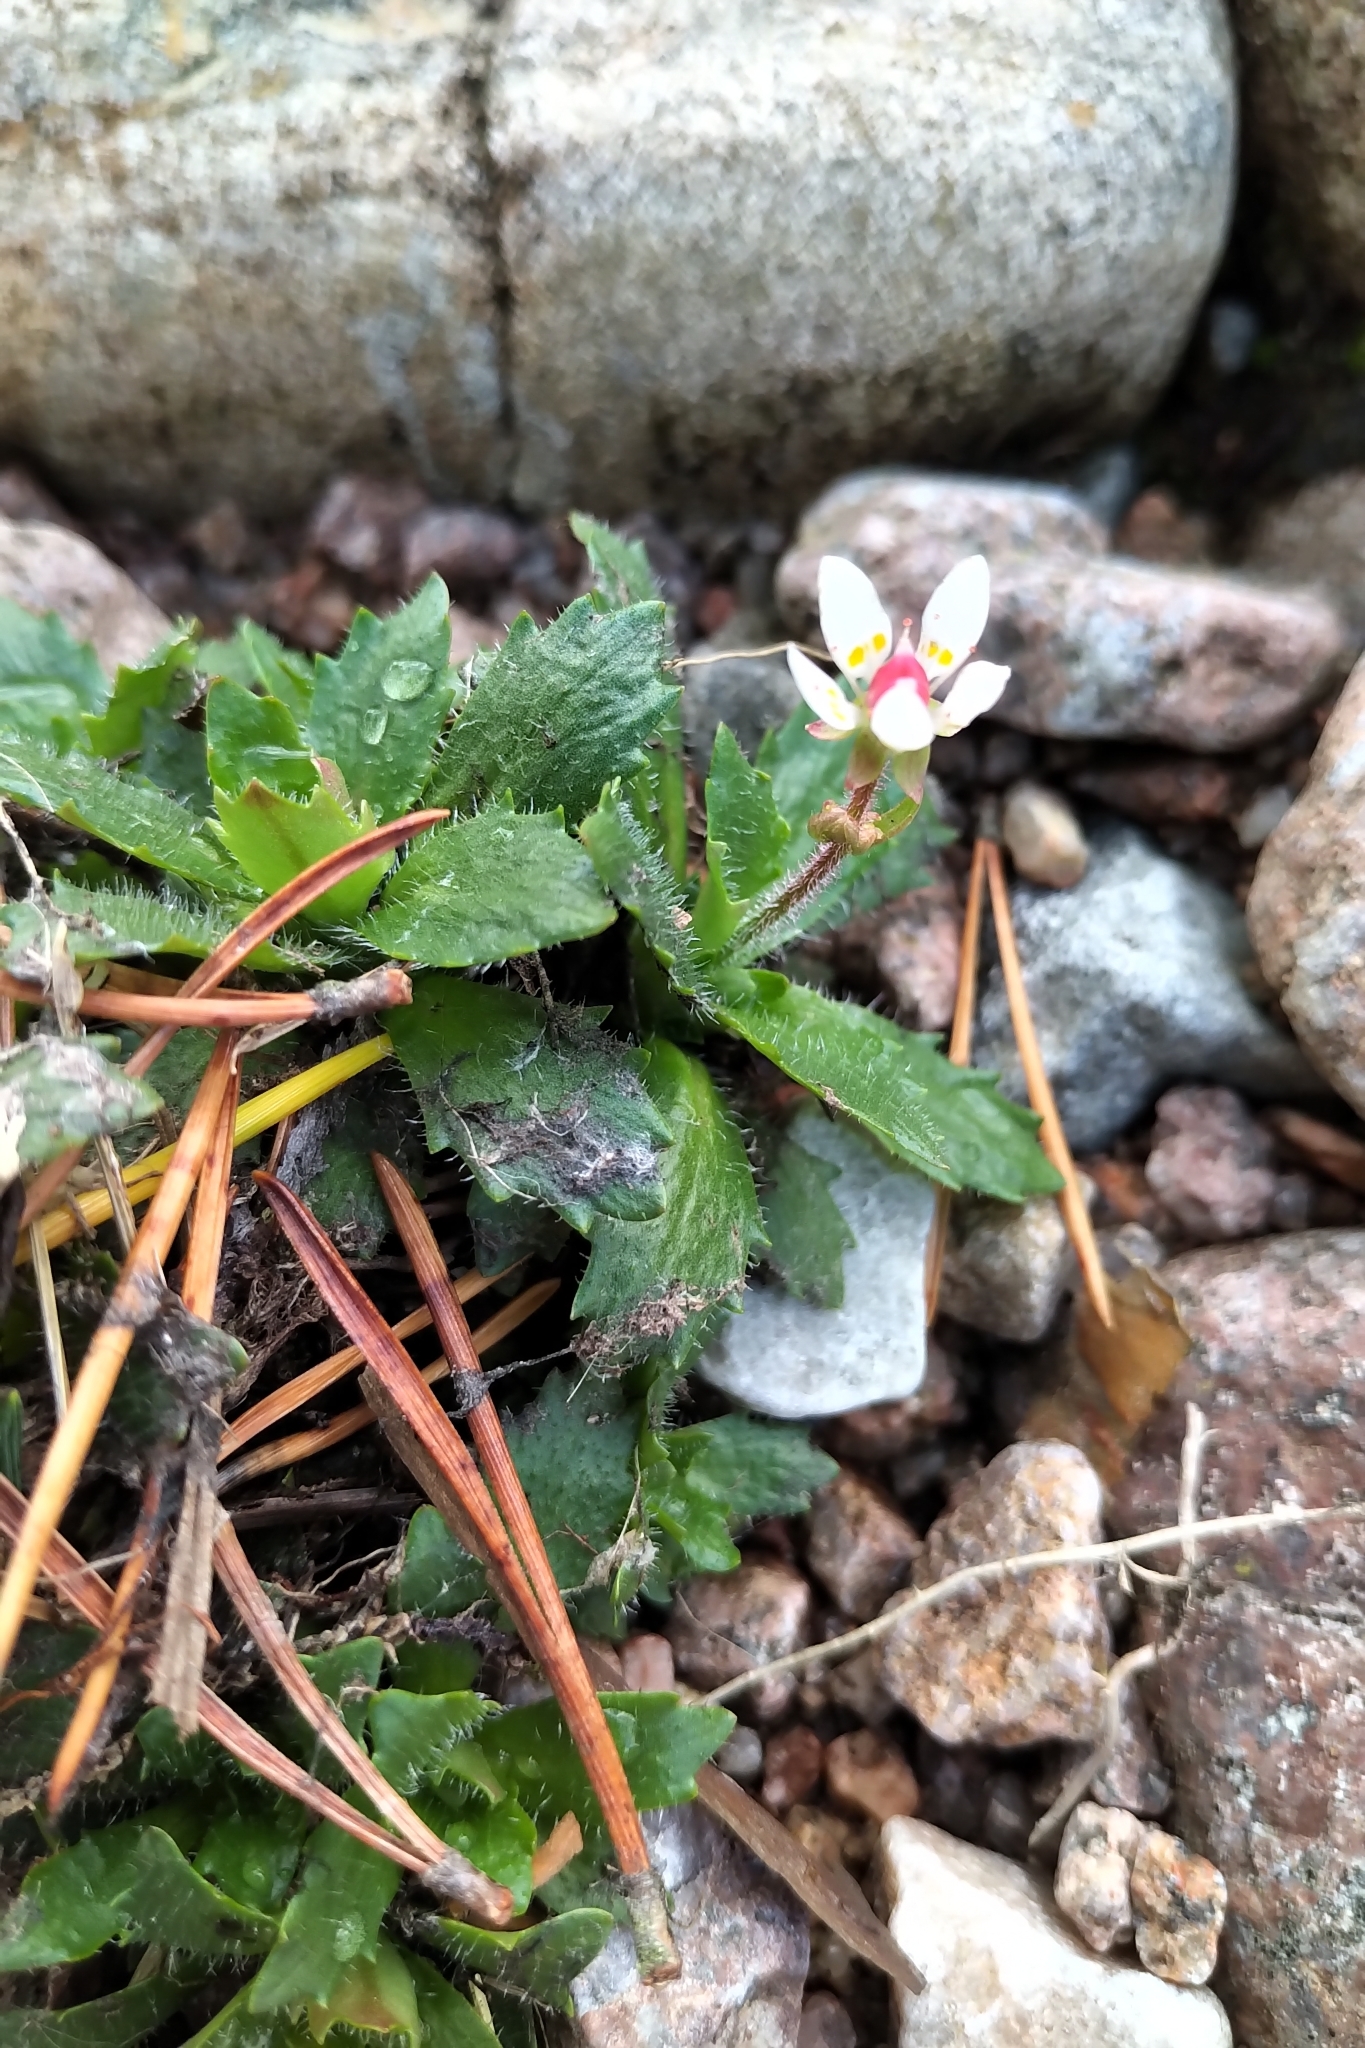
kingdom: Plantae
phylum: Tracheophyta
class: Magnoliopsida
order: Saxifragales
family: Saxifragaceae
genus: Micranthes
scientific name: Micranthes stellaris
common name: Starry saxifrage
